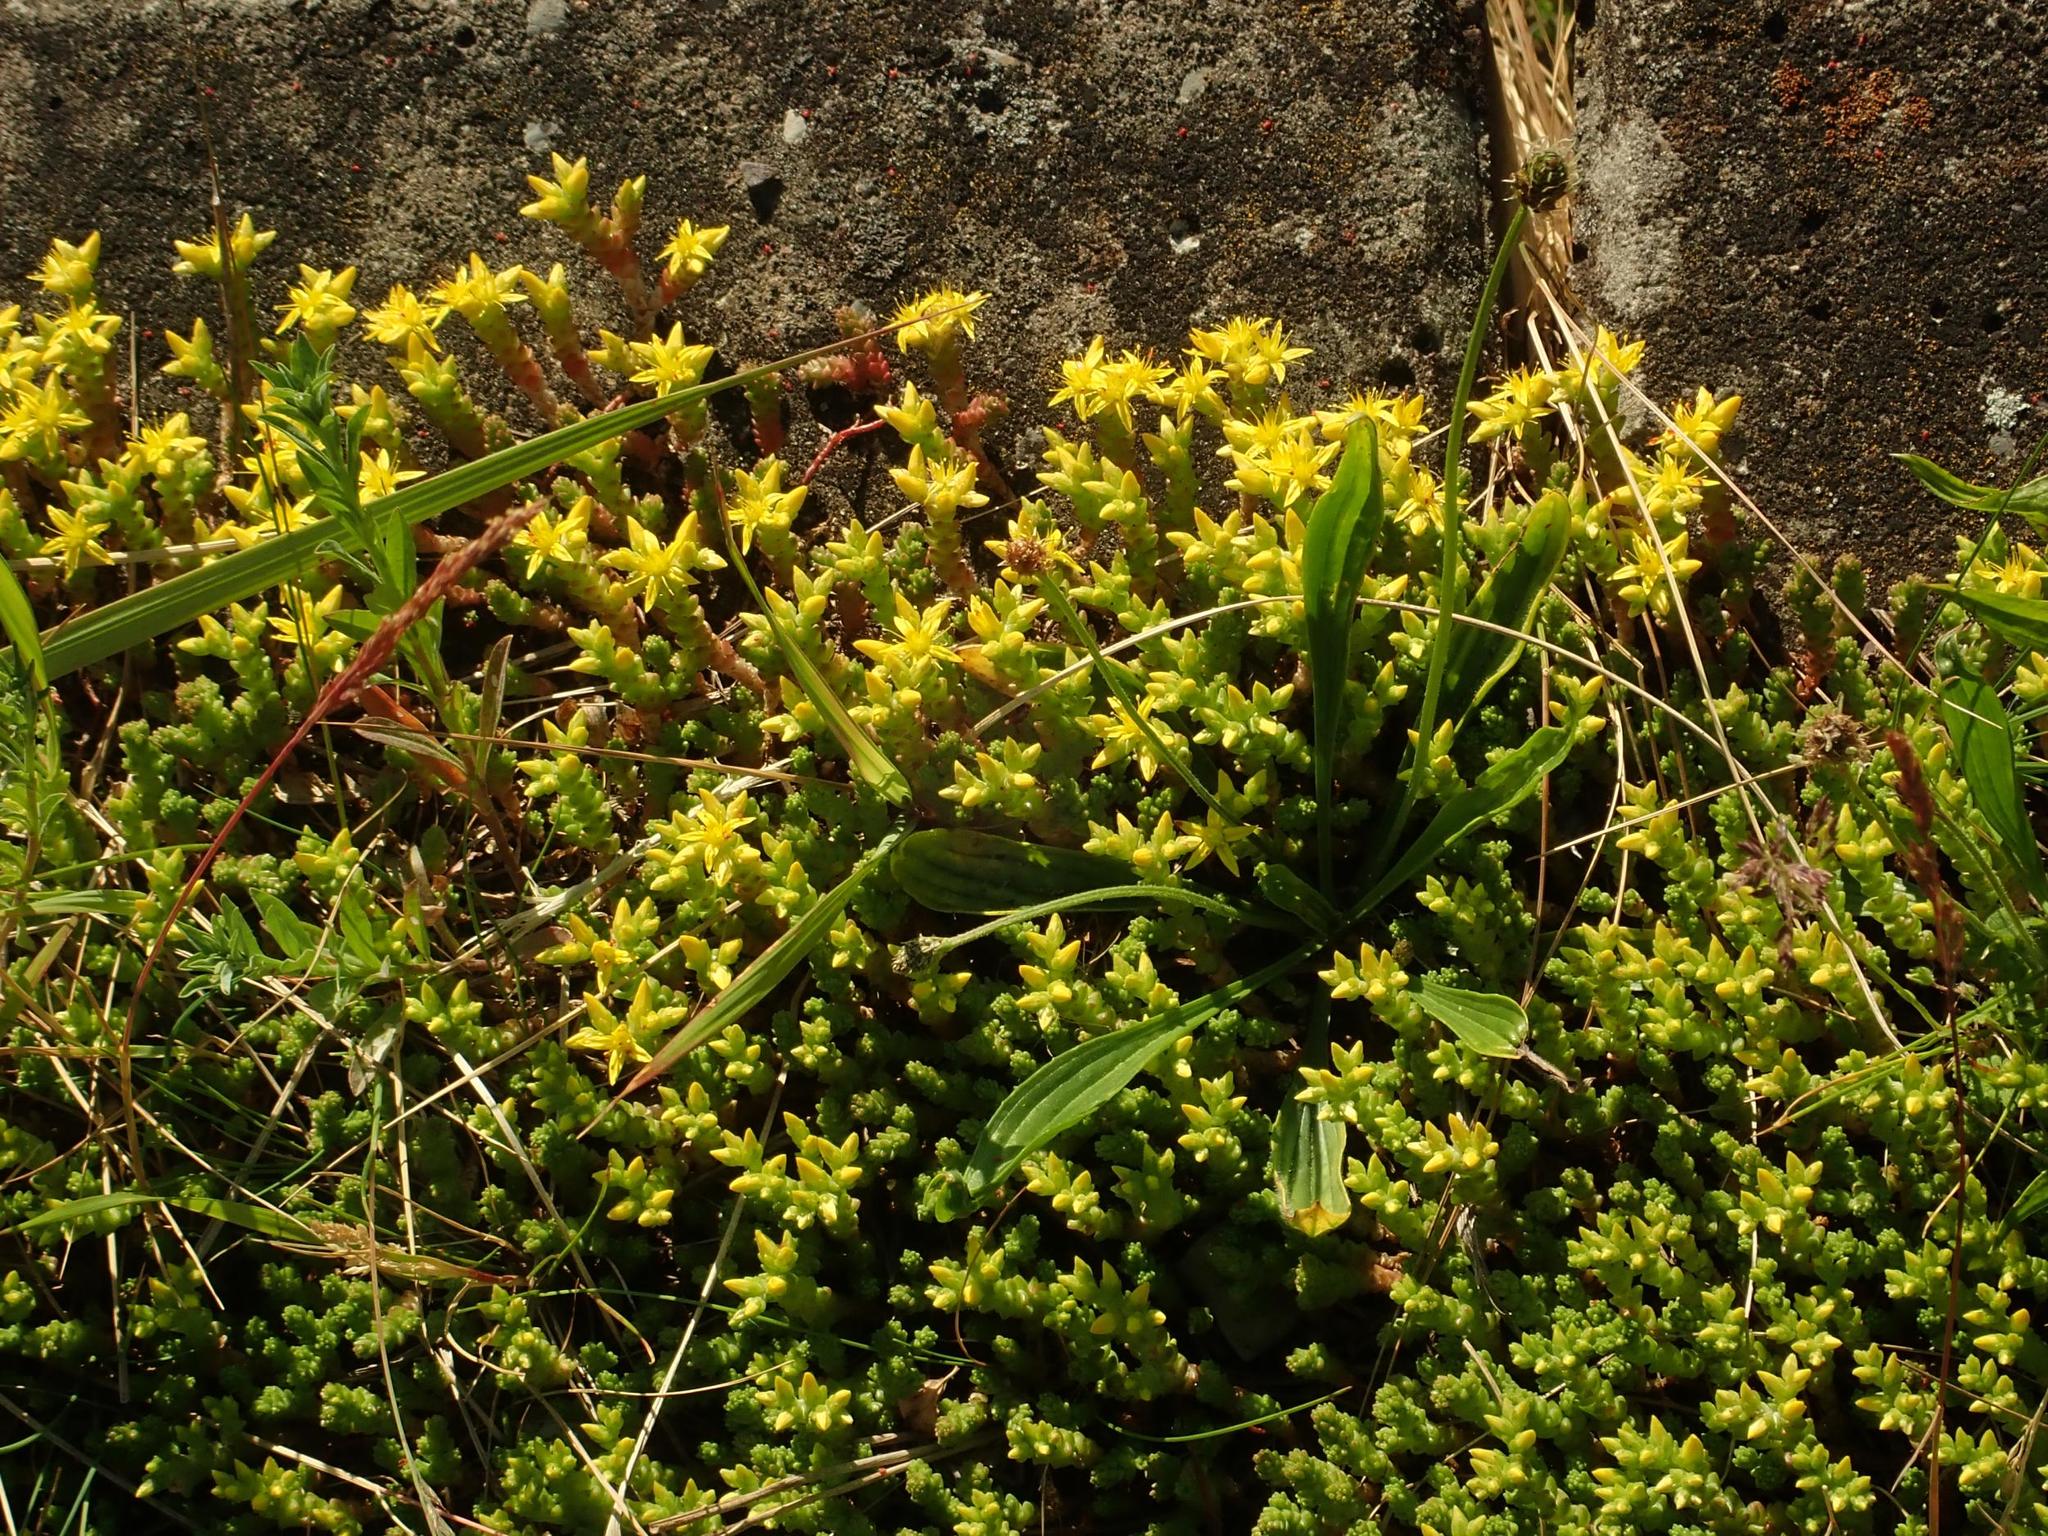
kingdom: Plantae
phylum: Tracheophyta
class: Magnoliopsida
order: Saxifragales
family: Crassulaceae
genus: Sedum
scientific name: Sedum acre
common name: Biting stonecrop
